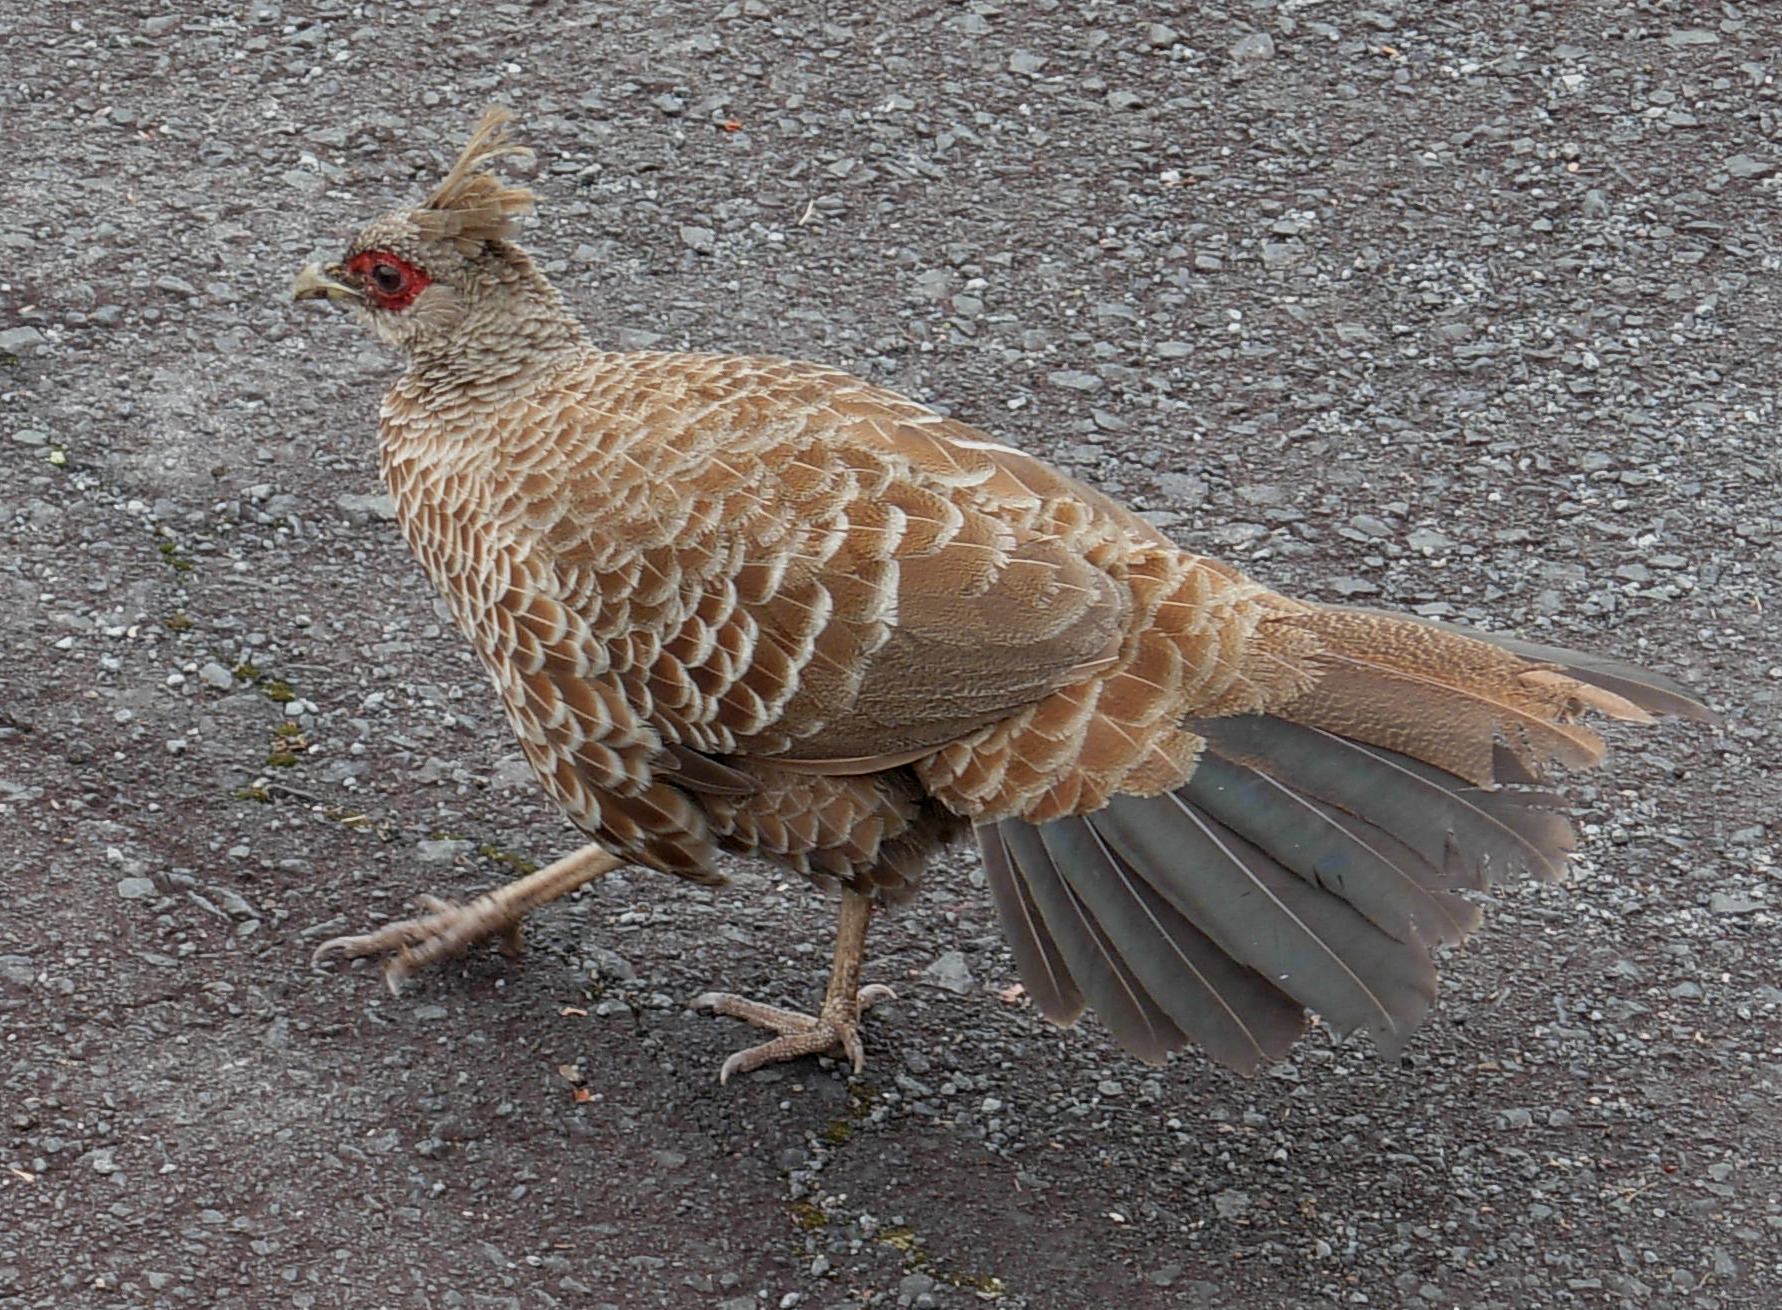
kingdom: Animalia
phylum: Chordata
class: Aves
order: Galliformes
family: Phasianidae
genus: Lophura
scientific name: Lophura leucomelanos
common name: Kalij pheasant
